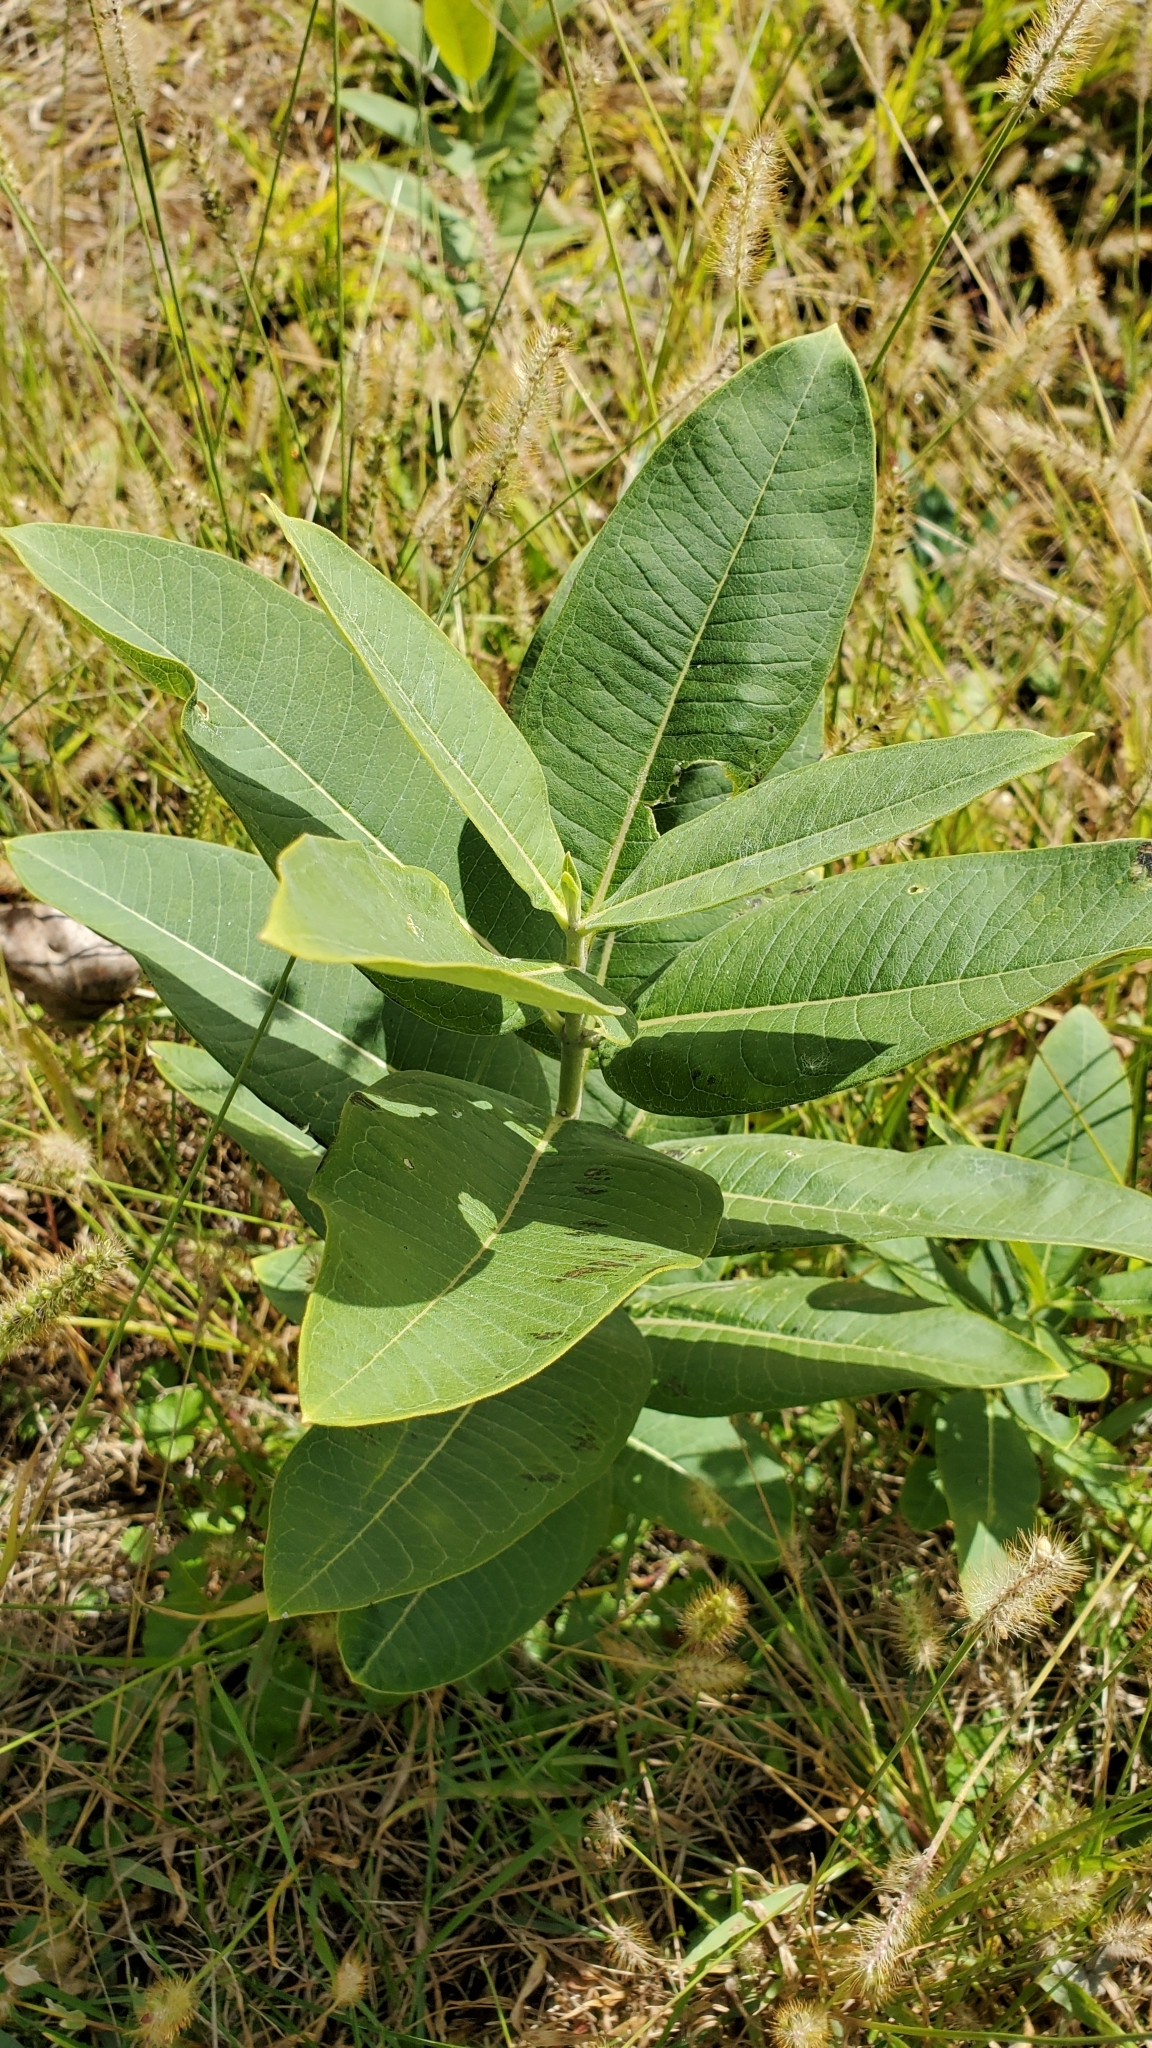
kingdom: Plantae
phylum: Tracheophyta
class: Magnoliopsida
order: Gentianales
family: Apocynaceae
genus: Asclepias
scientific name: Asclepias syriaca
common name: Common milkweed
